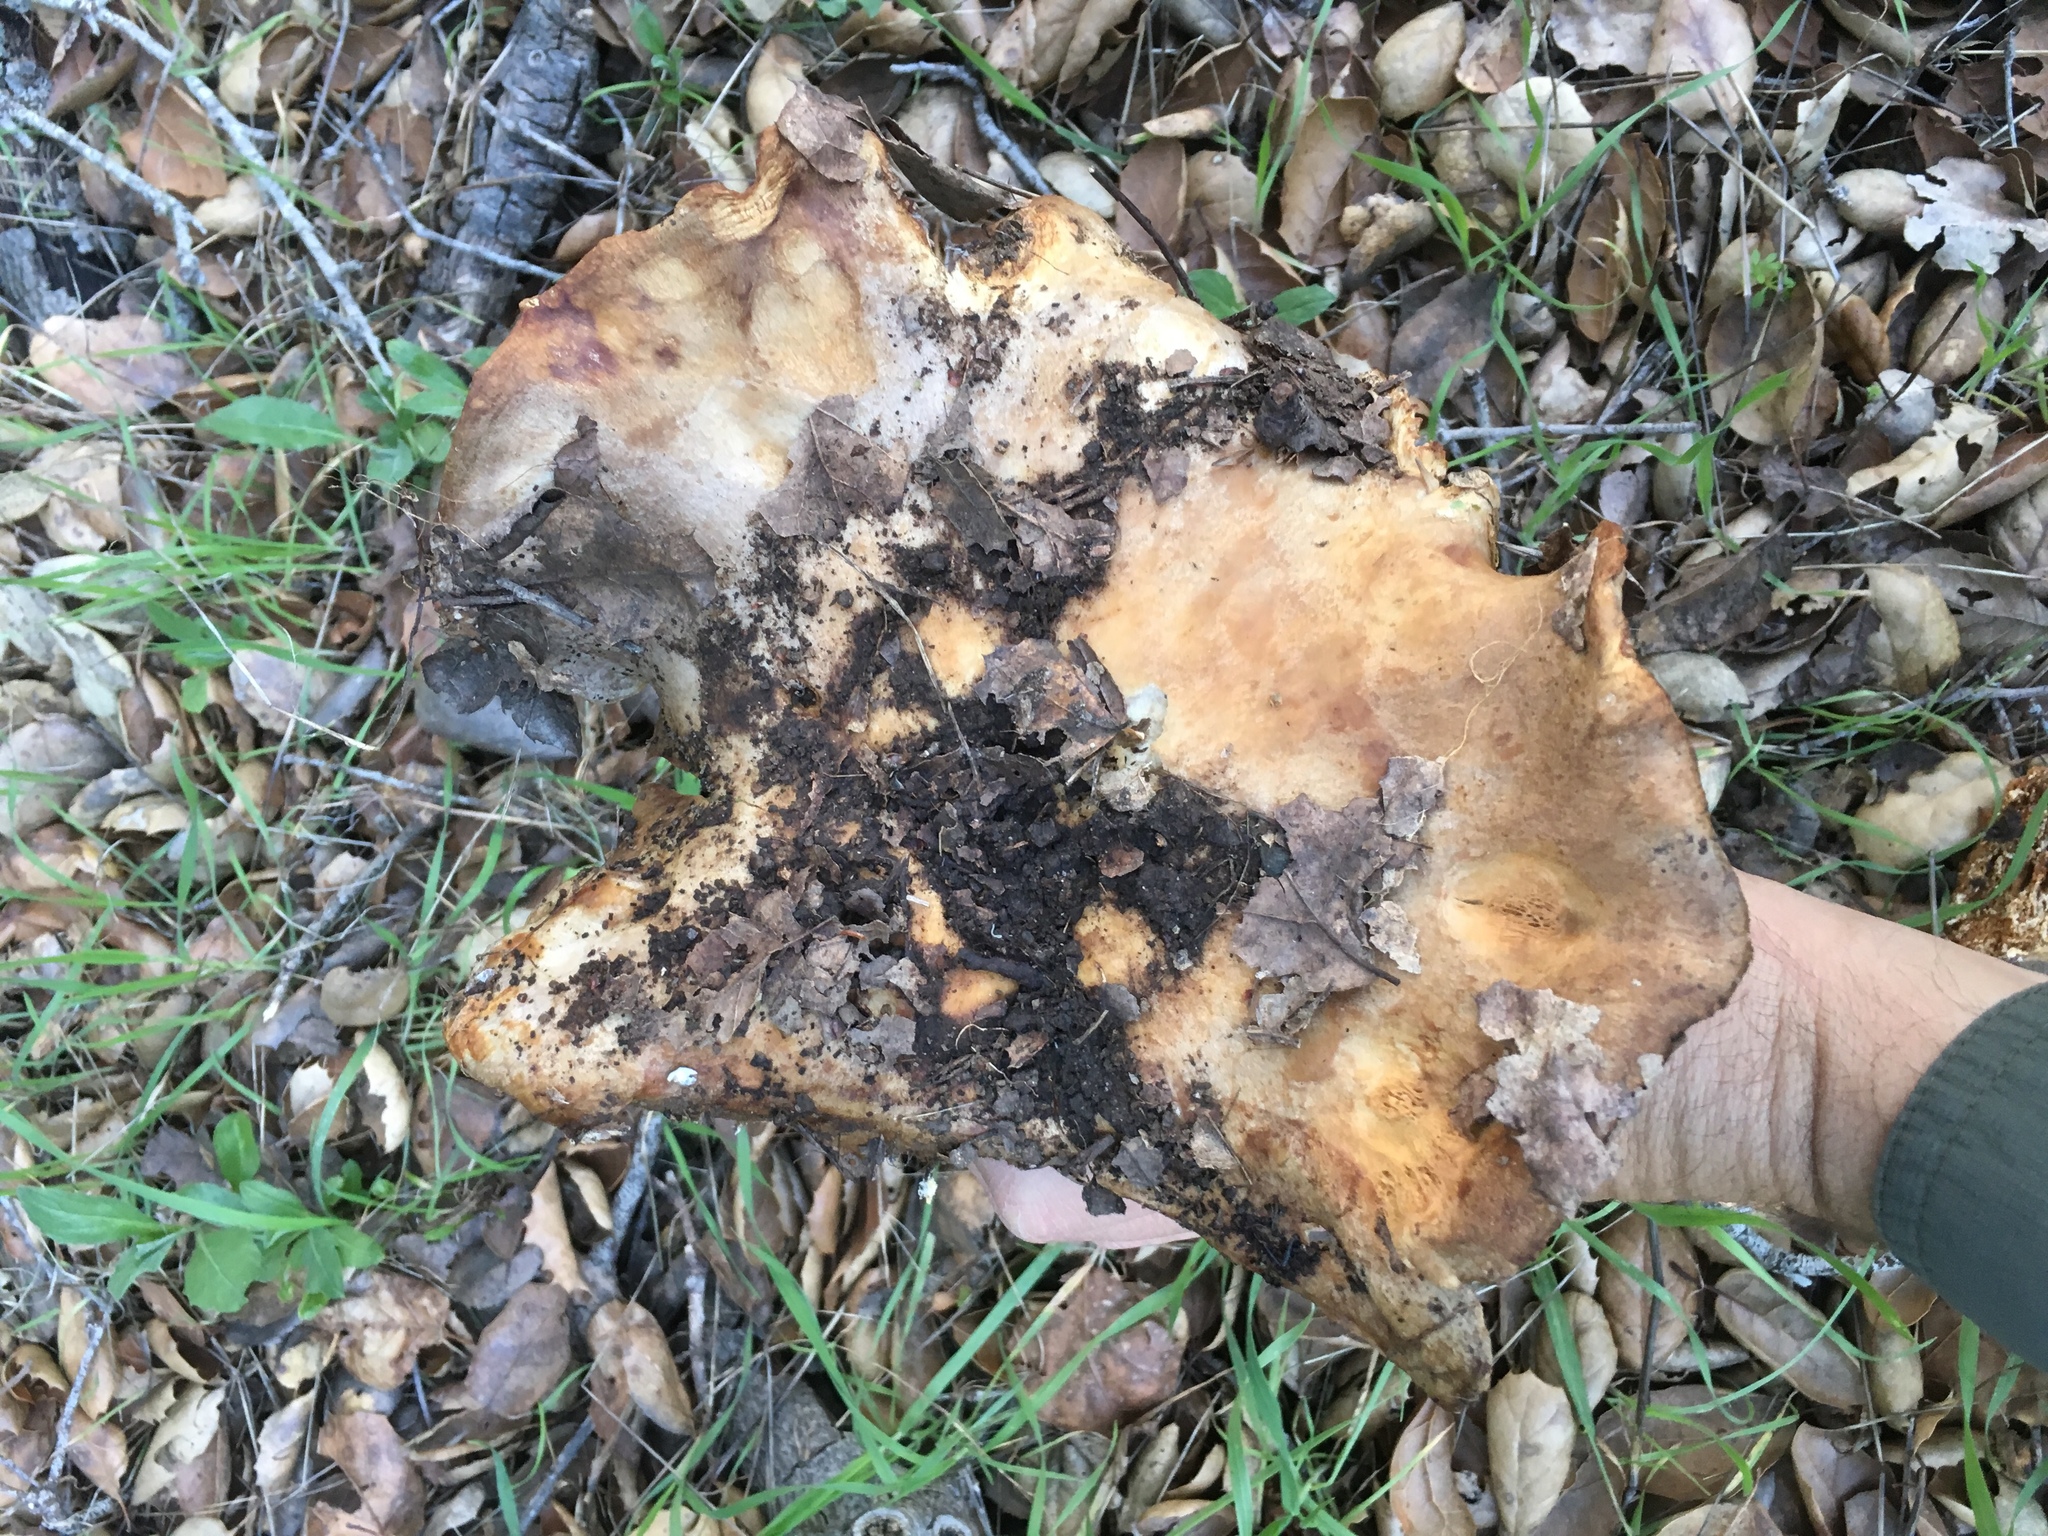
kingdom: Fungi
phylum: Basidiomycota
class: Agaricomycetes
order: Russulales
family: Russulaceae
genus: Lactarius
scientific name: Lactarius argillaceifolius
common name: Clay-gilled milkcap
